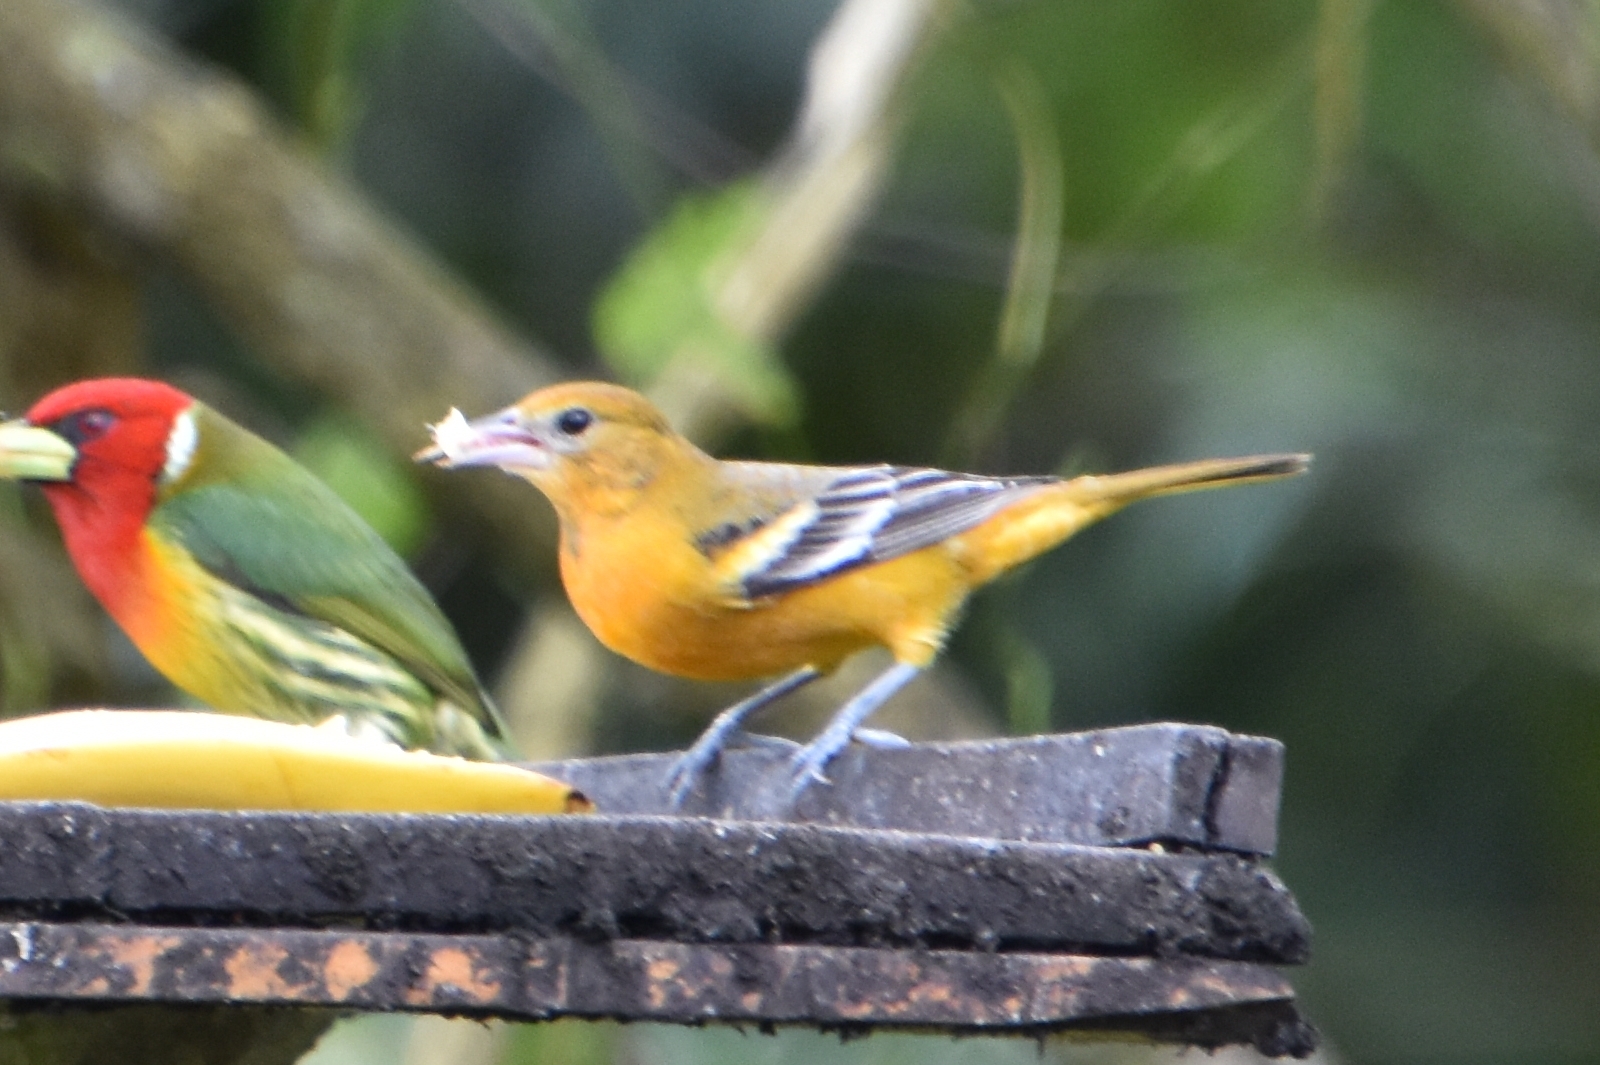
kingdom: Animalia
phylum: Chordata
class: Aves
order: Passeriformes
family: Icteridae
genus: Icterus
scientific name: Icterus galbula
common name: Baltimore oriole
